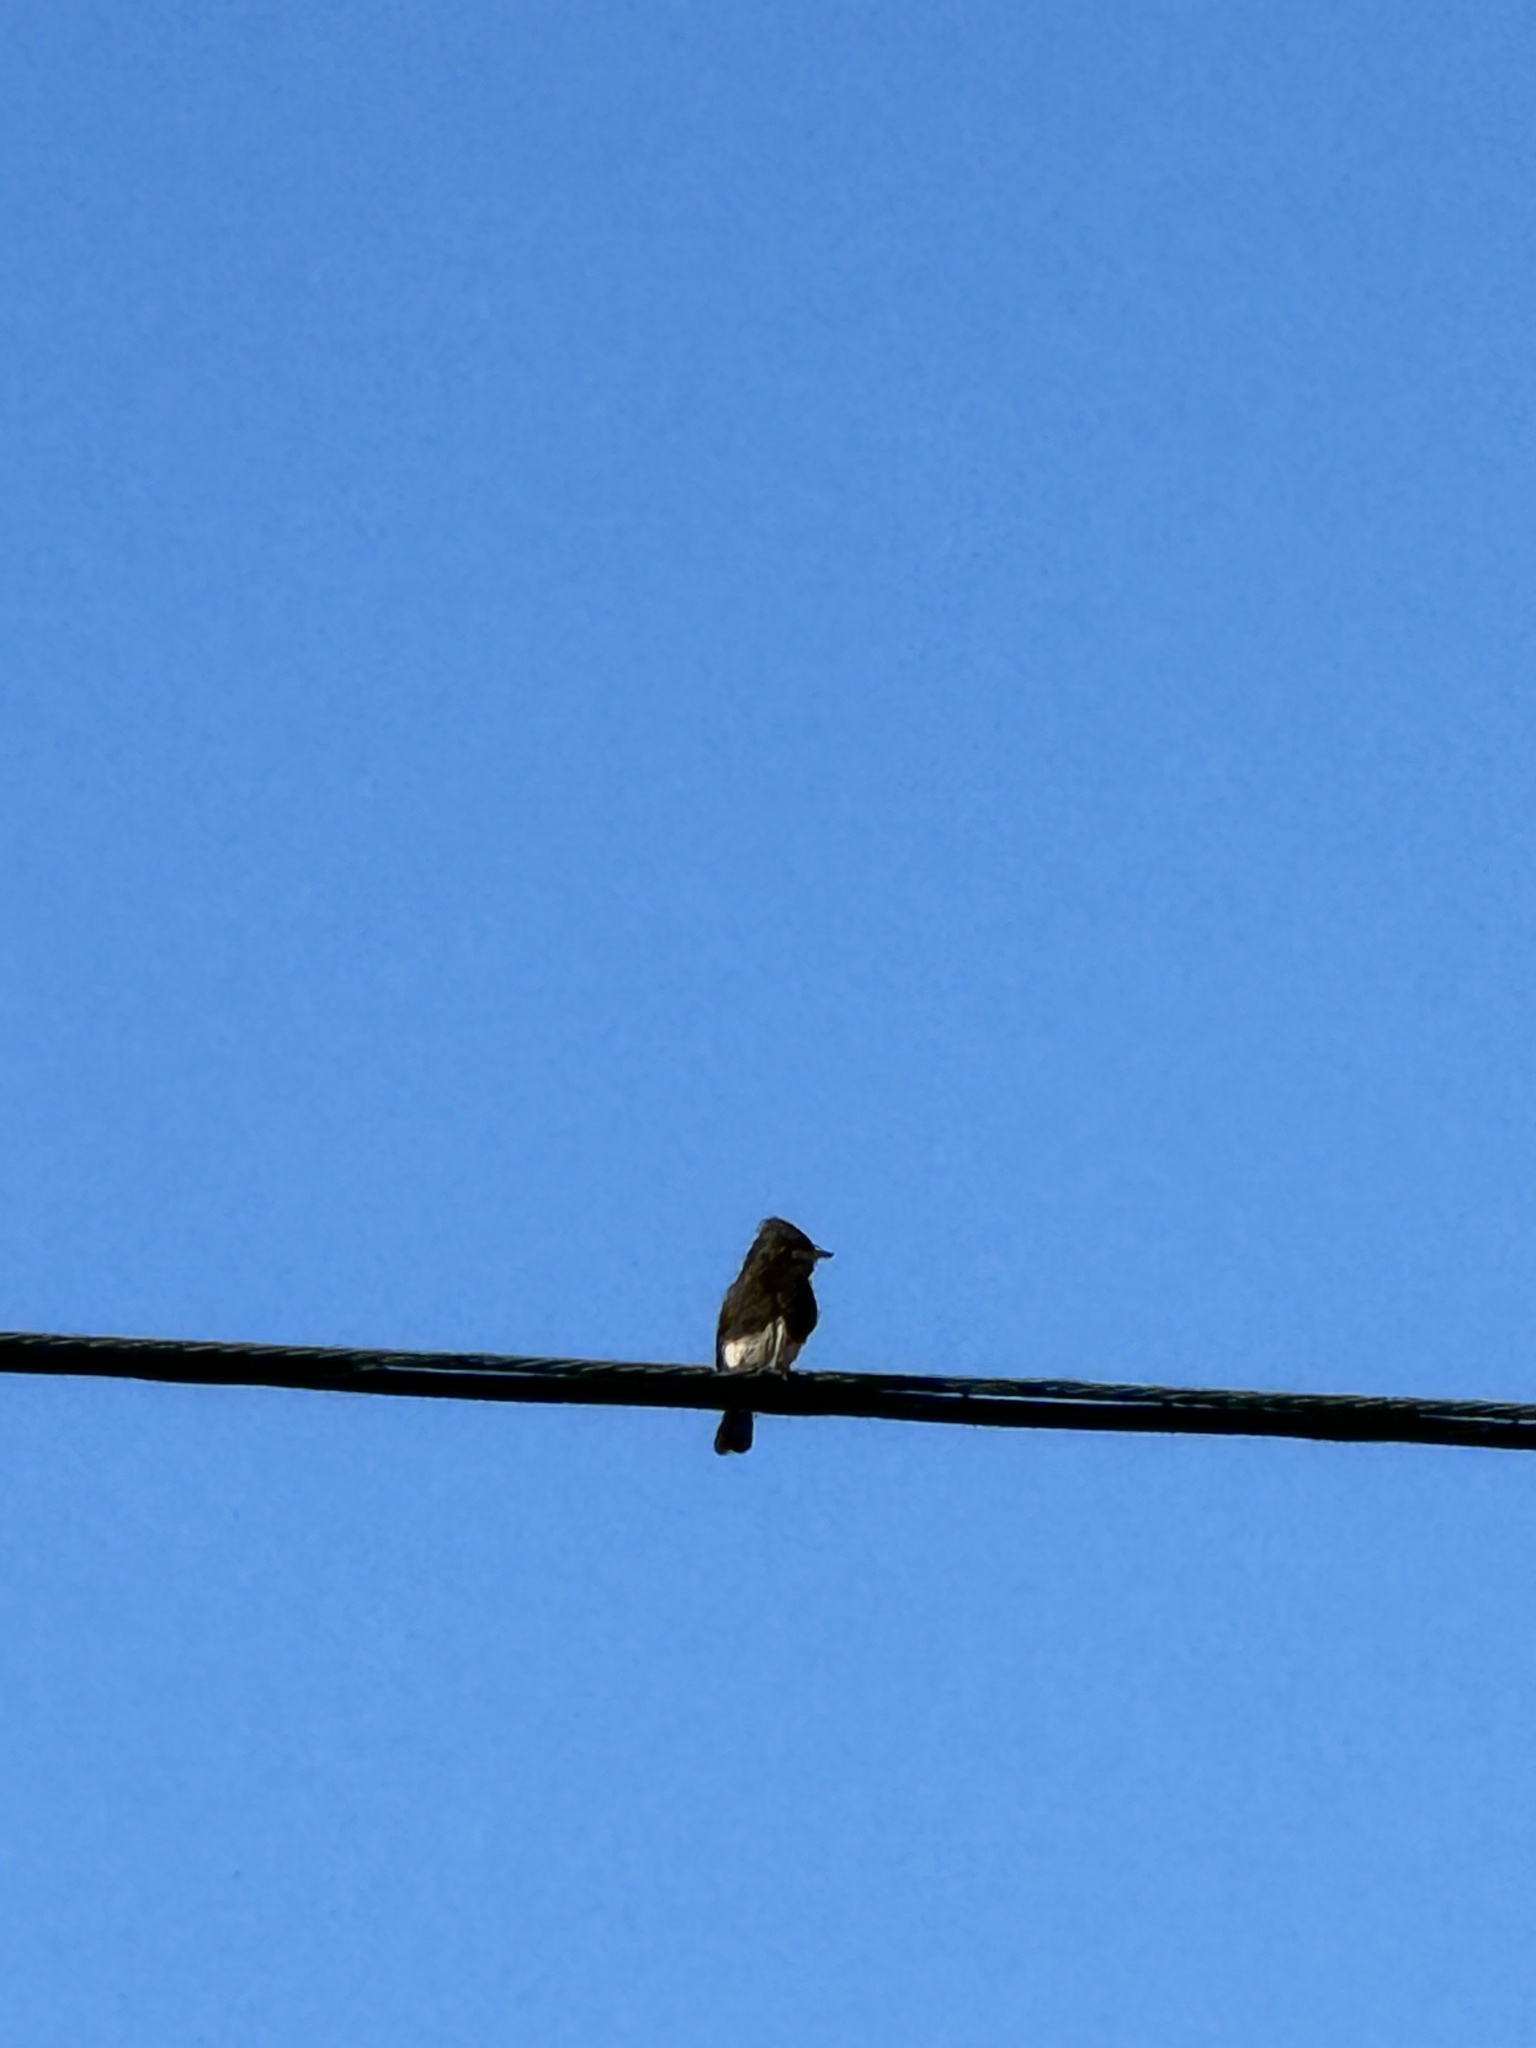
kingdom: Animalia
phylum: Chordata
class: Aves
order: Passeriformes
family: Tyrannidae
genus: Sayornis
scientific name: Sayornis nigricans
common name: Black phoebe
